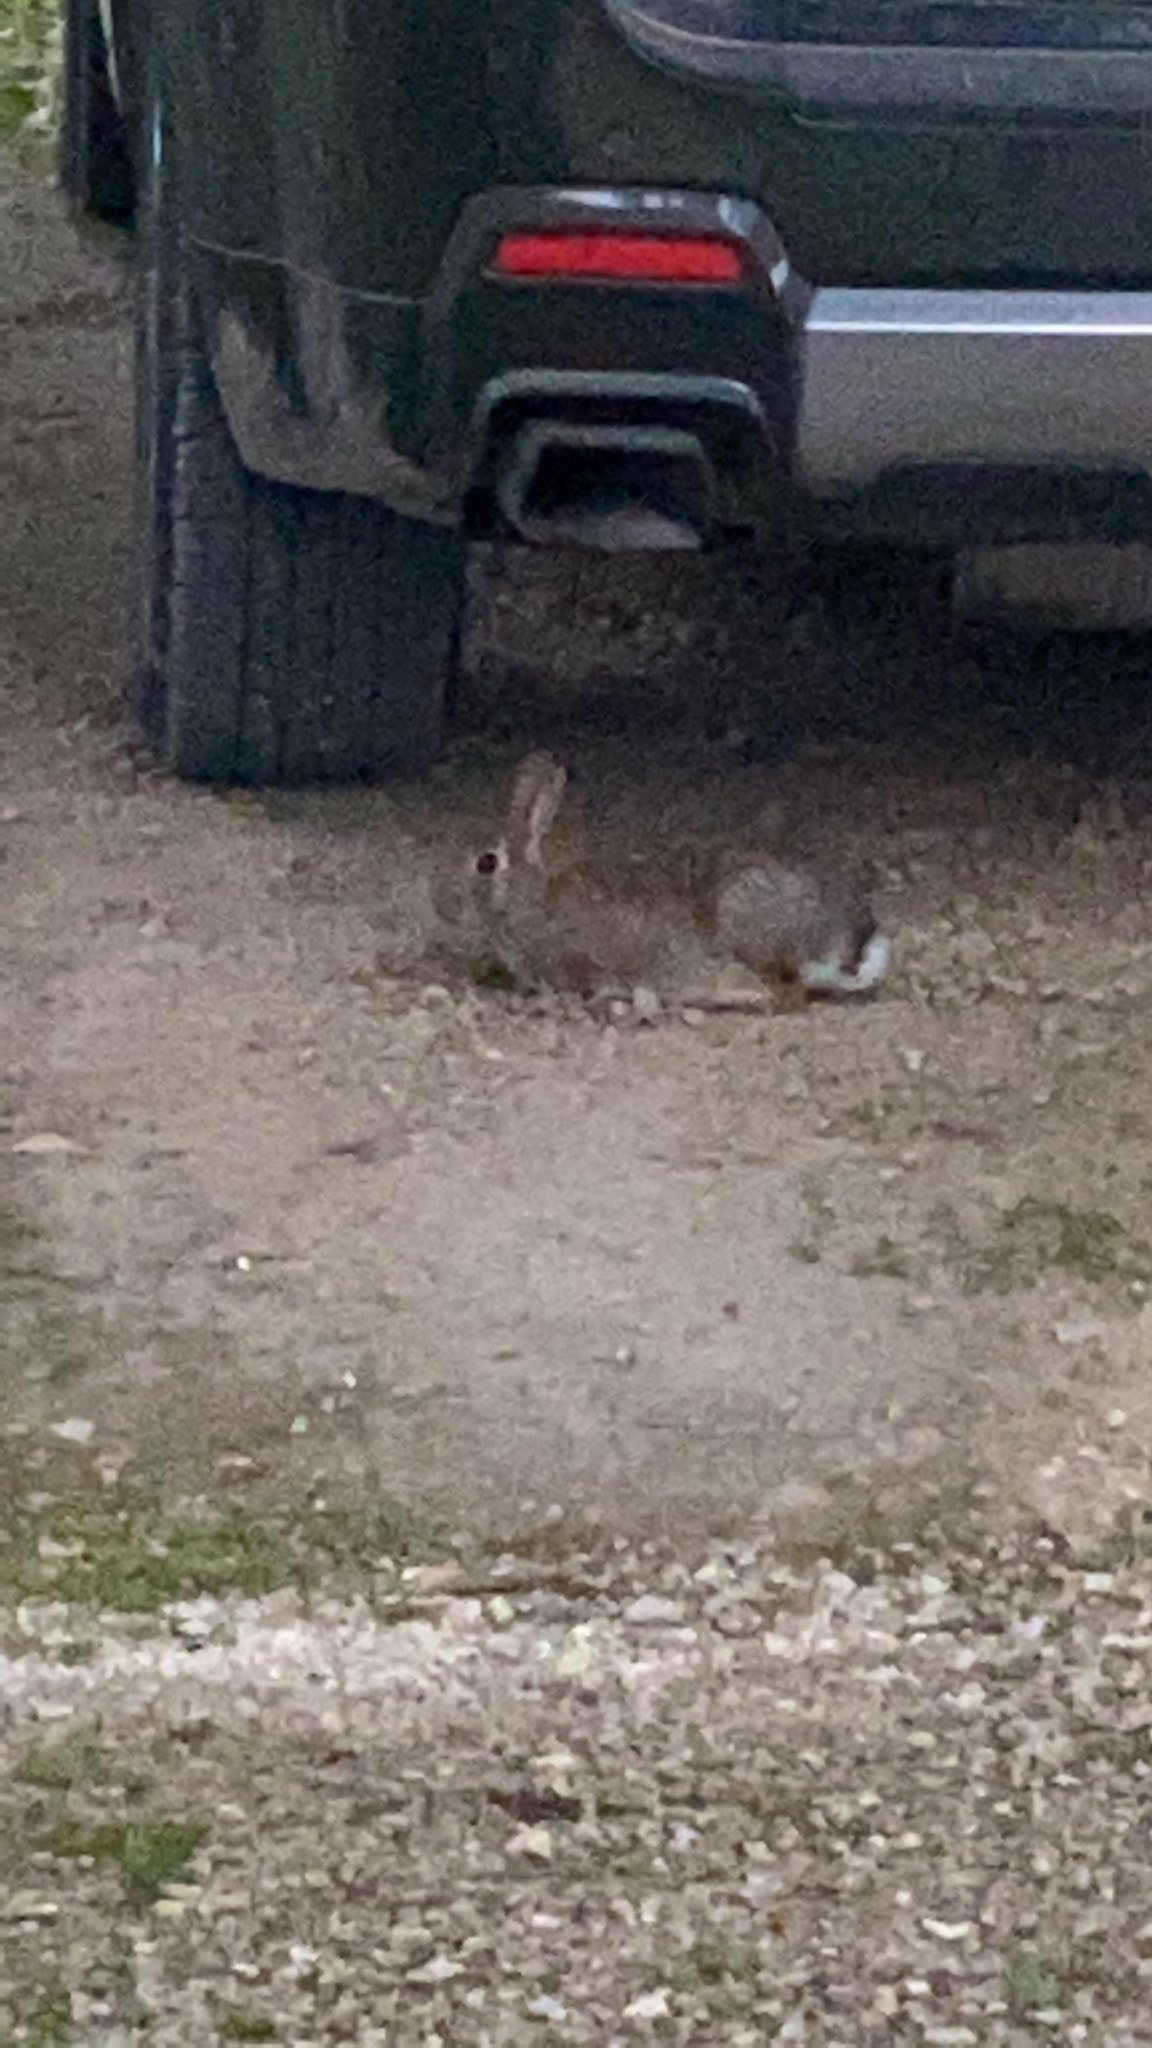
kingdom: Animalia
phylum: Chordata
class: Mammalia
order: Lagomorpha
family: Leporidae
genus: Sylvilagus
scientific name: Sylvilagus floridanus
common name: Eastern cottontail
